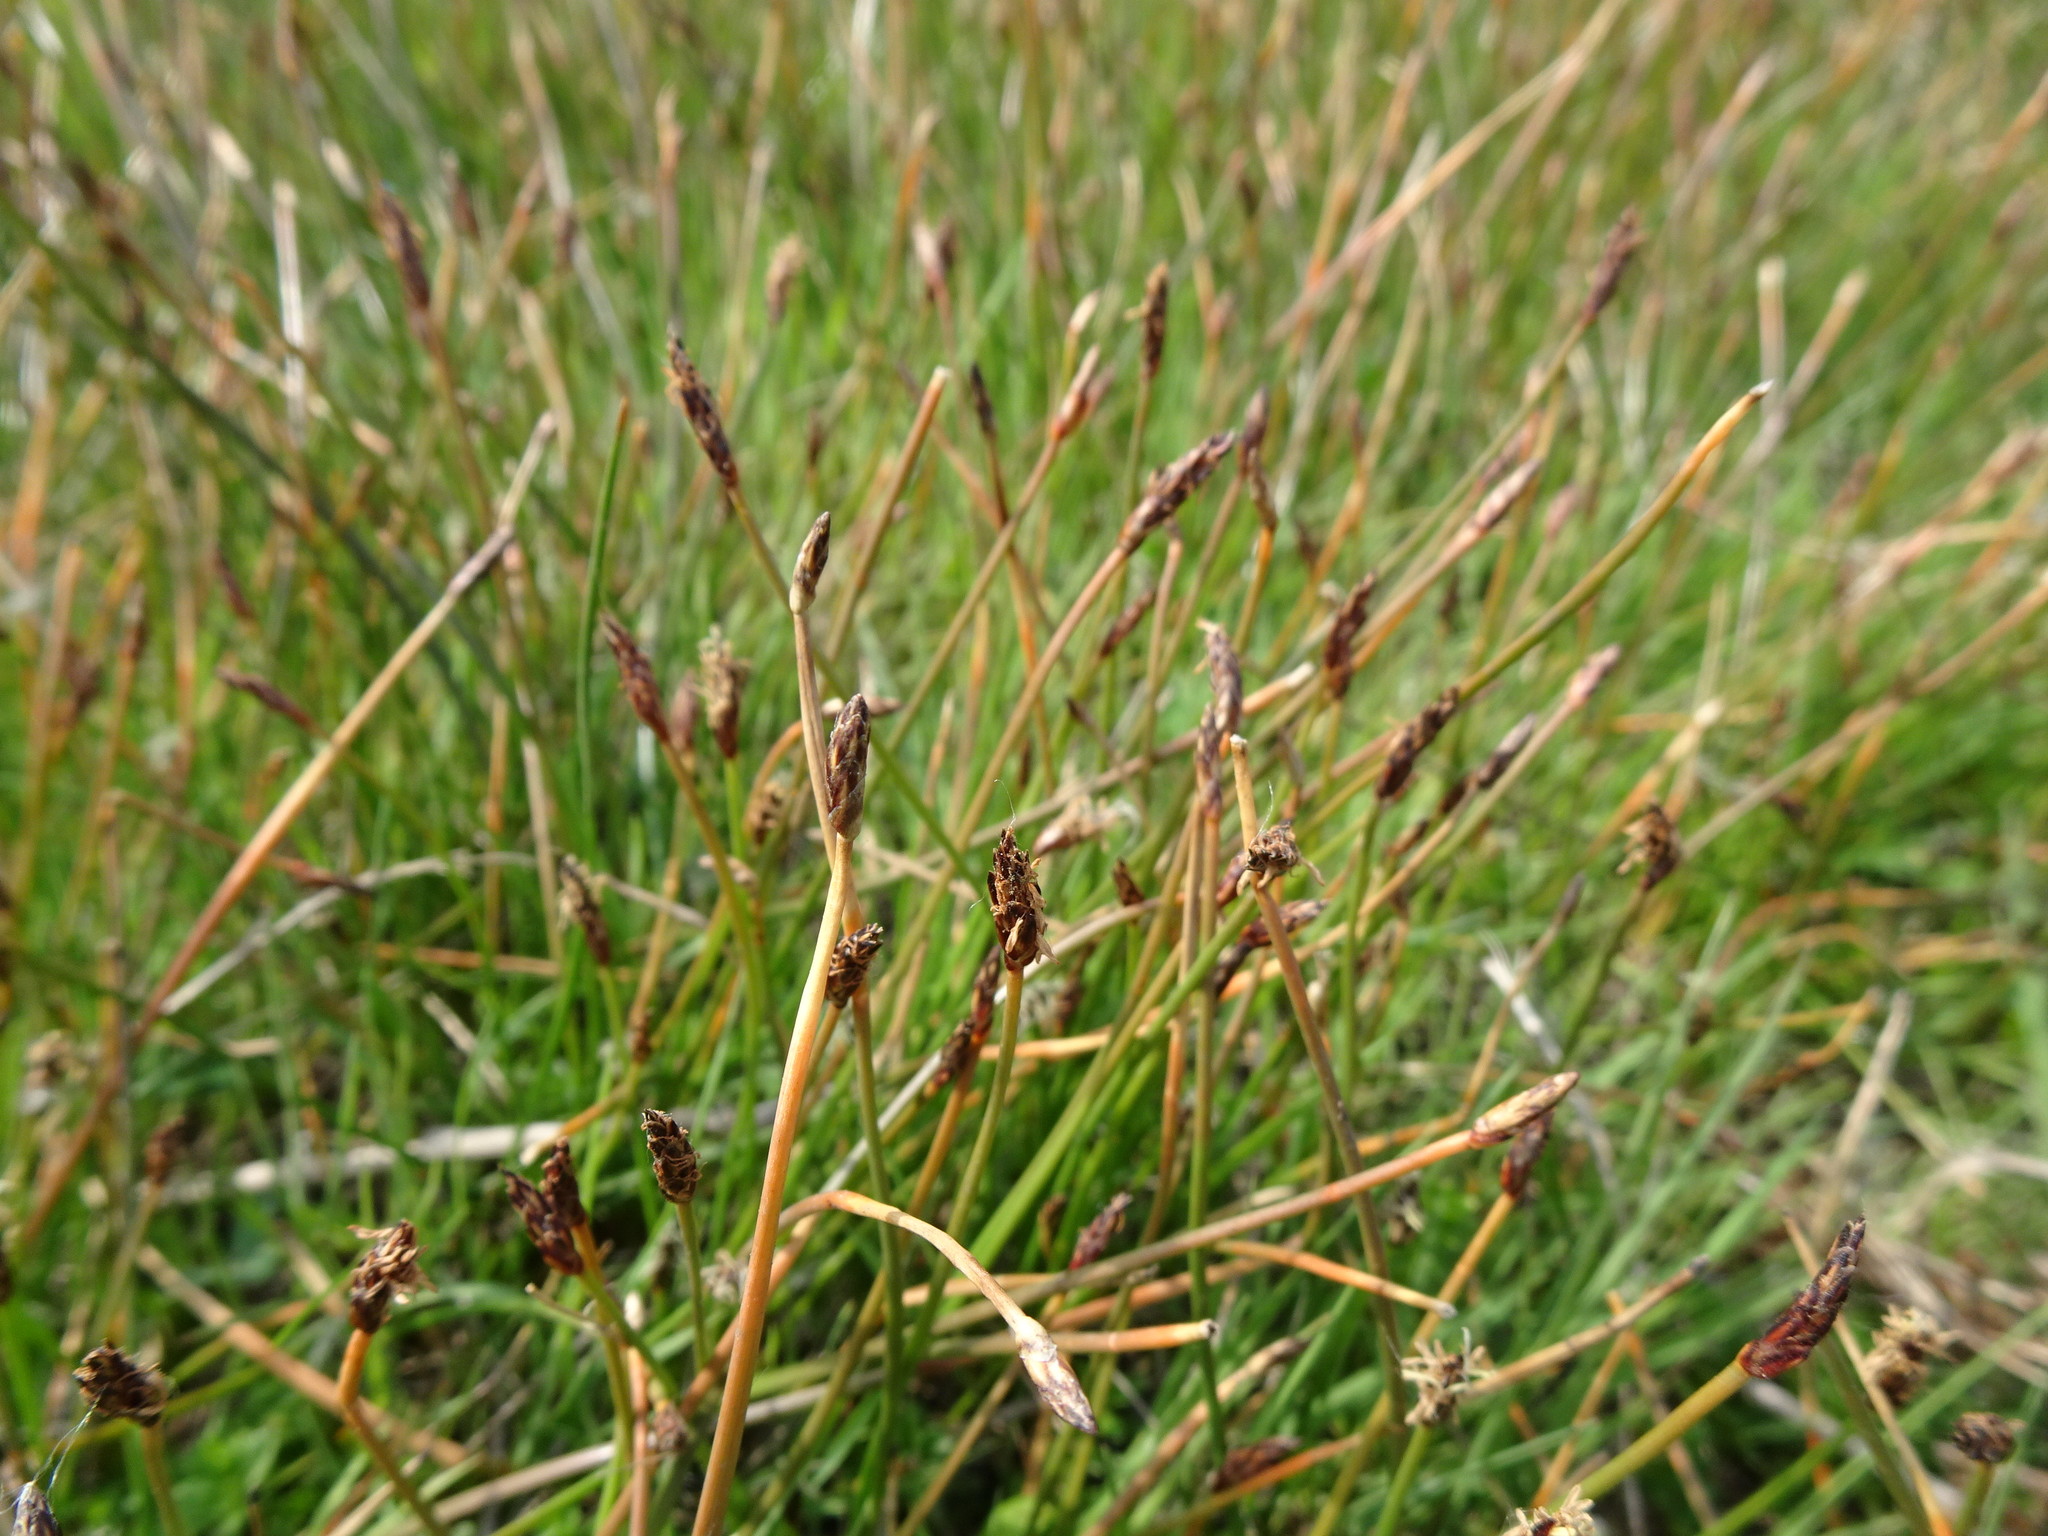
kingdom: Plantae
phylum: Tracheophyta
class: Liliopsida
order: Poales
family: Cyperaceae
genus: Eleocharis
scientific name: Eleocharis uniglumis
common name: Slender spike-rush
